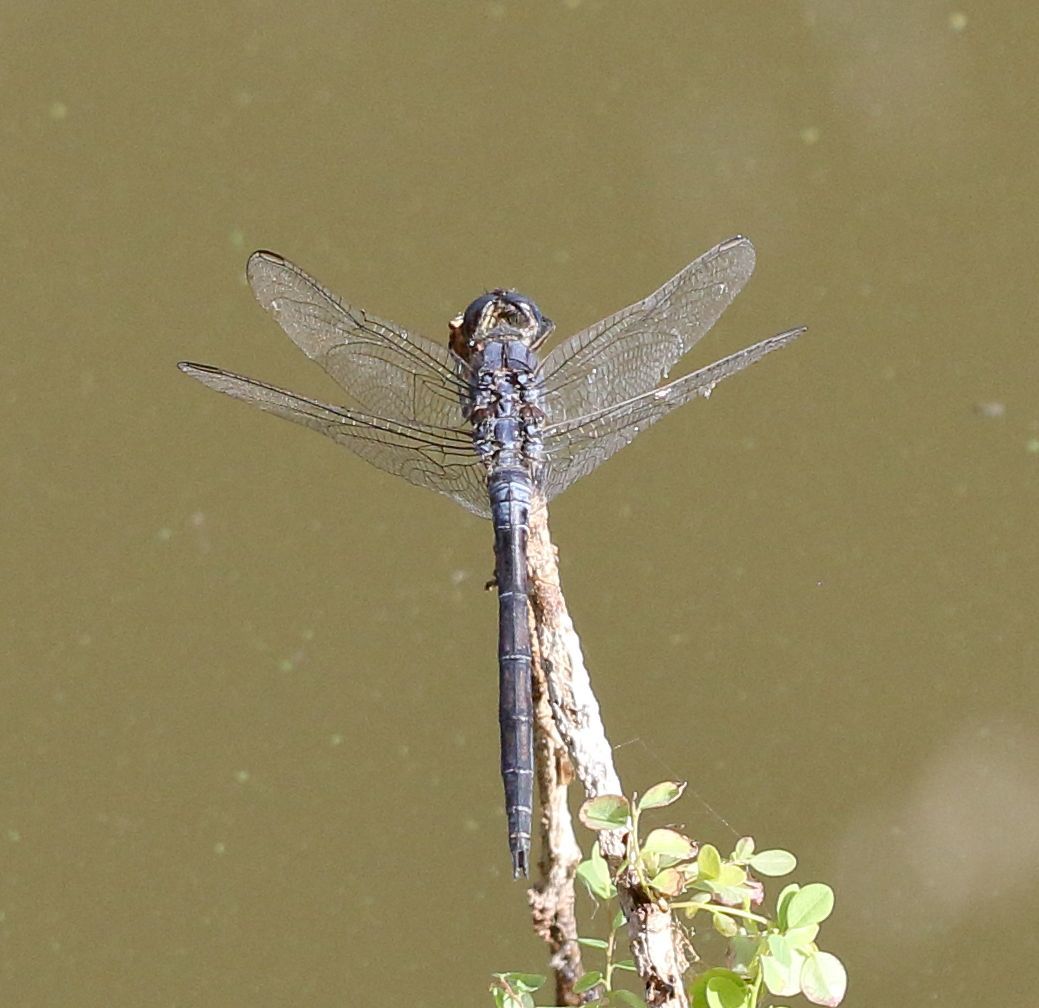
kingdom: Animalia
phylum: Arthropoda
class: Insecta
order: Odonata
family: Libellulidae
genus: Orthetrum
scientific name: Orthetrum trinacria
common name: Long skimmer
